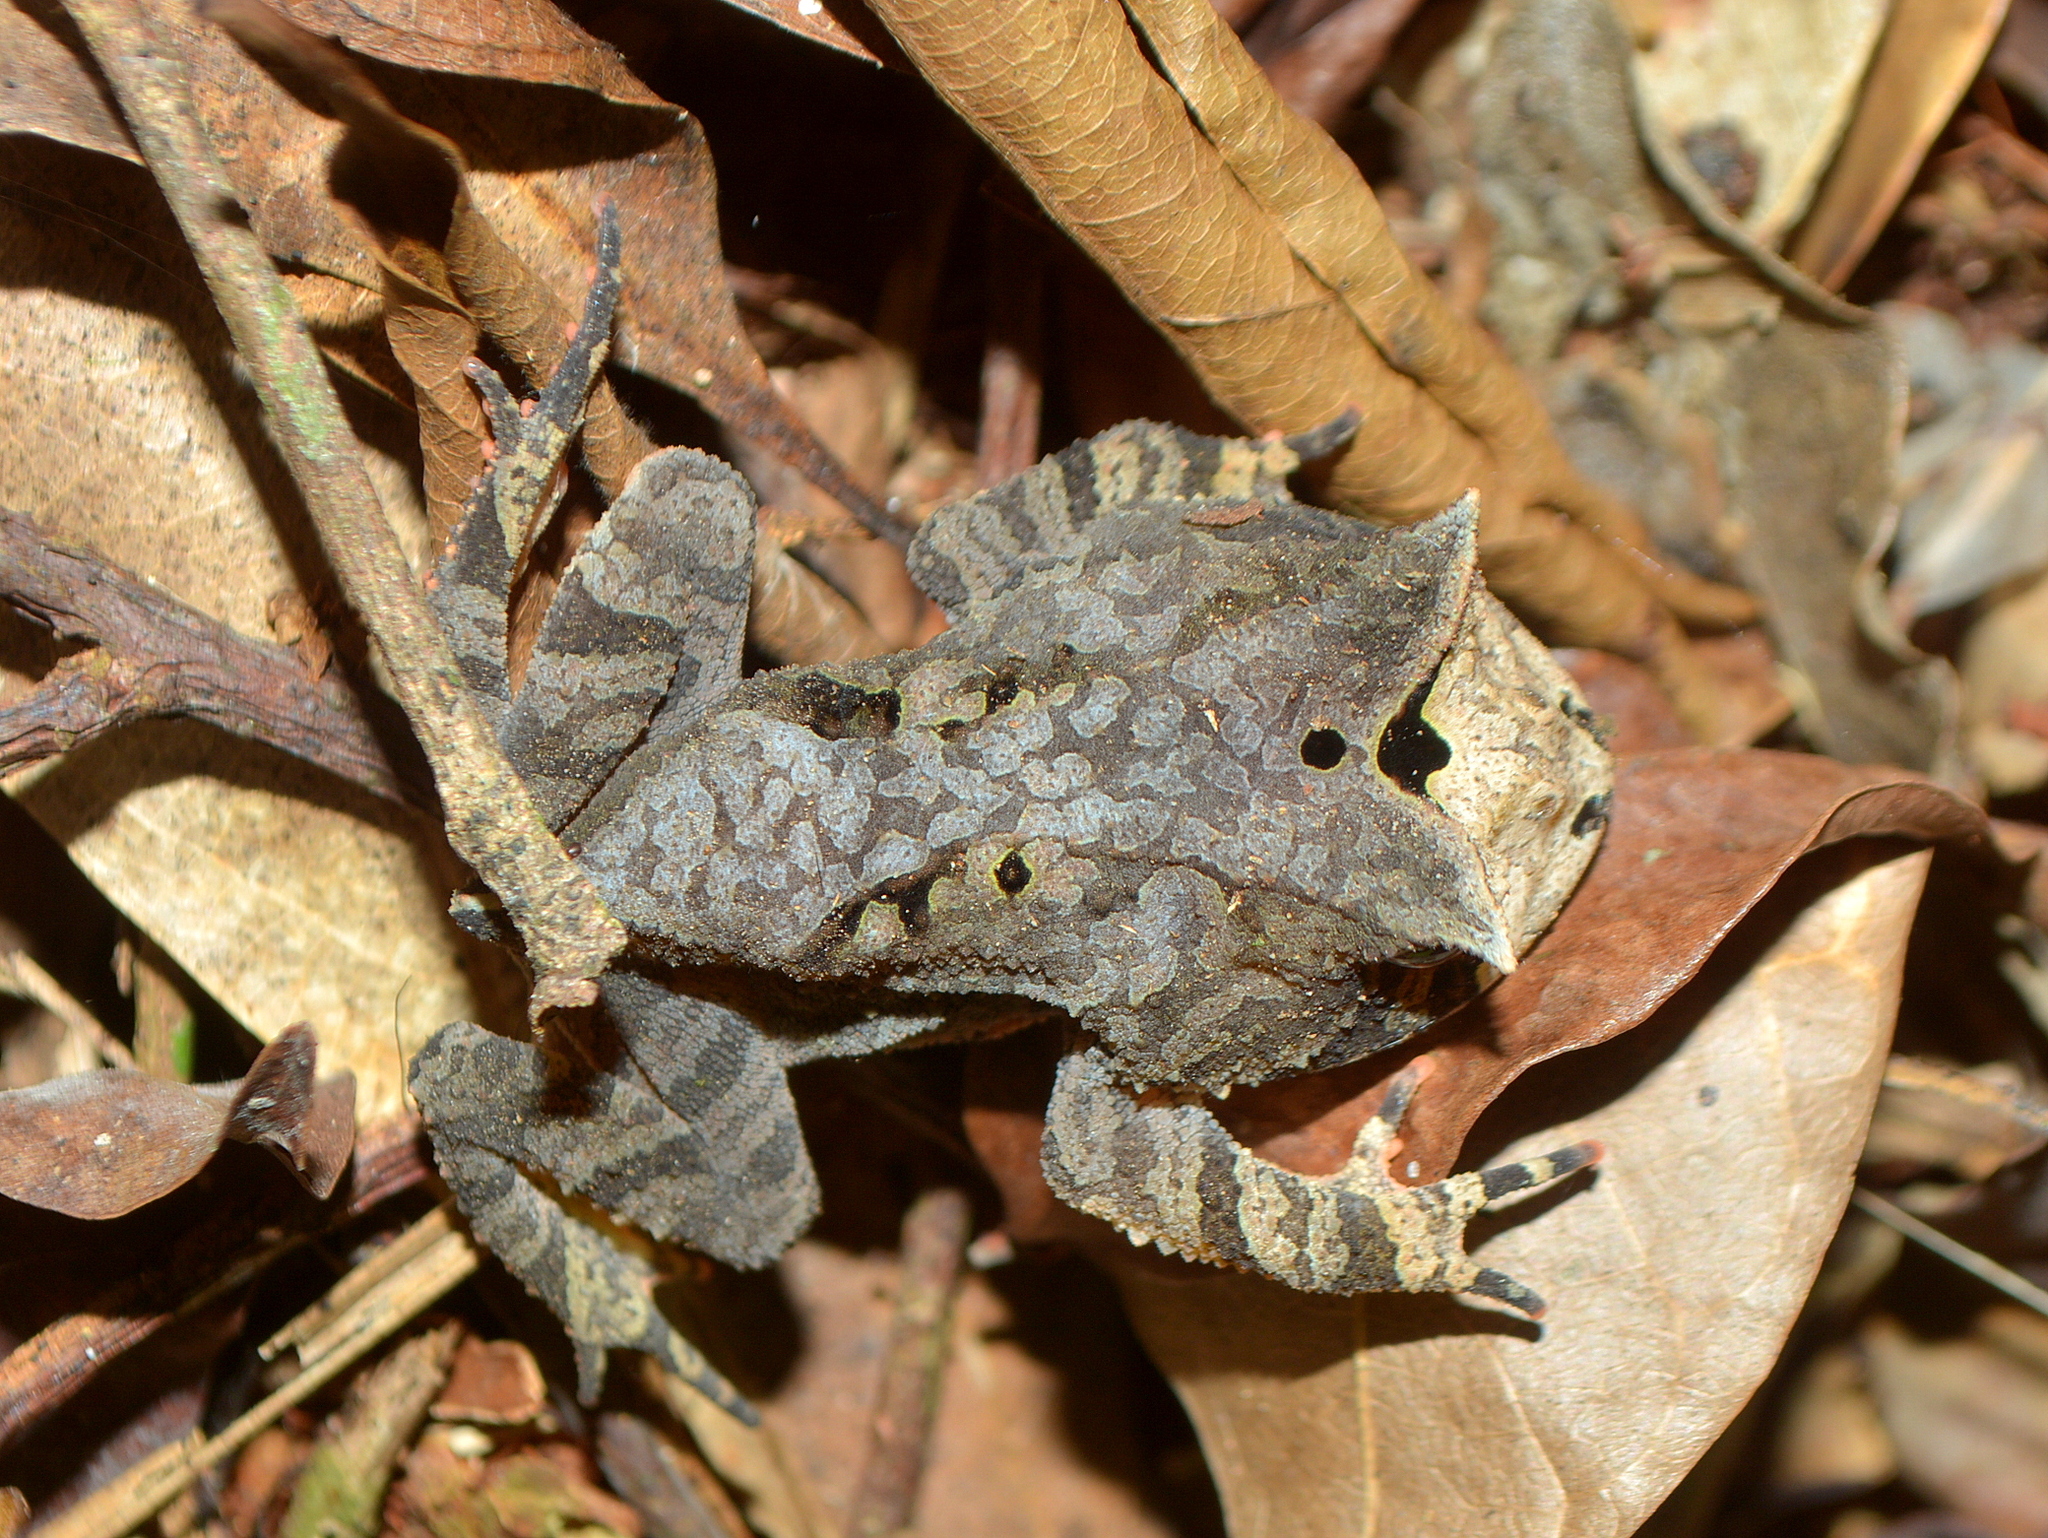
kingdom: Animalia
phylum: Chordata
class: Amphibia
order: Anura
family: Odontophrynidae
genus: Proceratophrys
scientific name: Proceratophrys boiei
